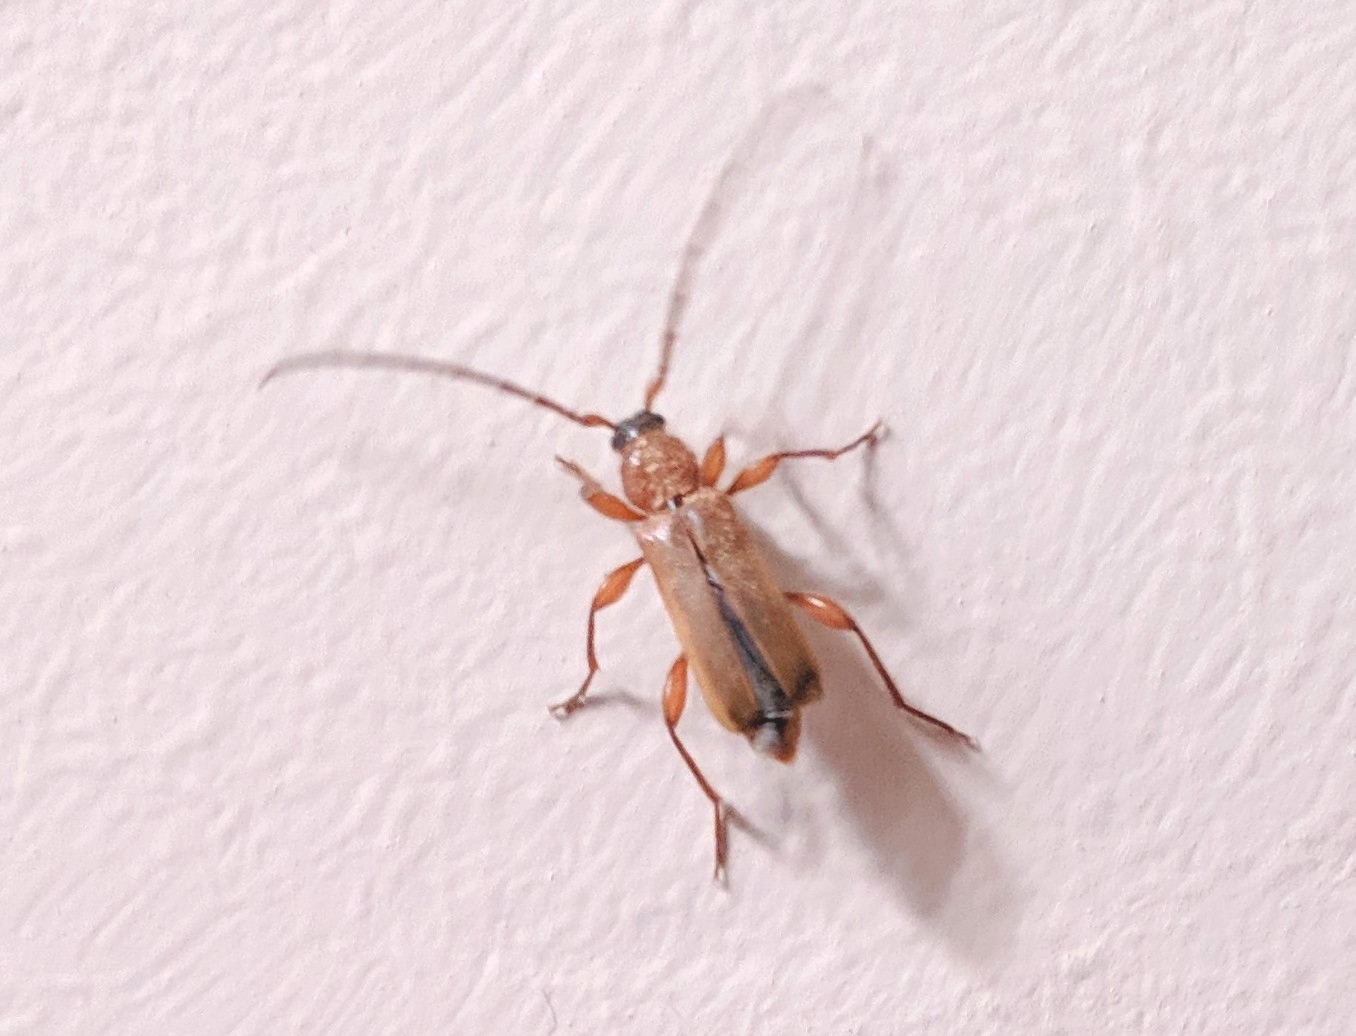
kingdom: Animalia
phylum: Arthropoda
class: Insecta
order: Coleoptera
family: Cerambycidae
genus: Phymatodes
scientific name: Phymatodes testaceus
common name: Long-horned beetle
